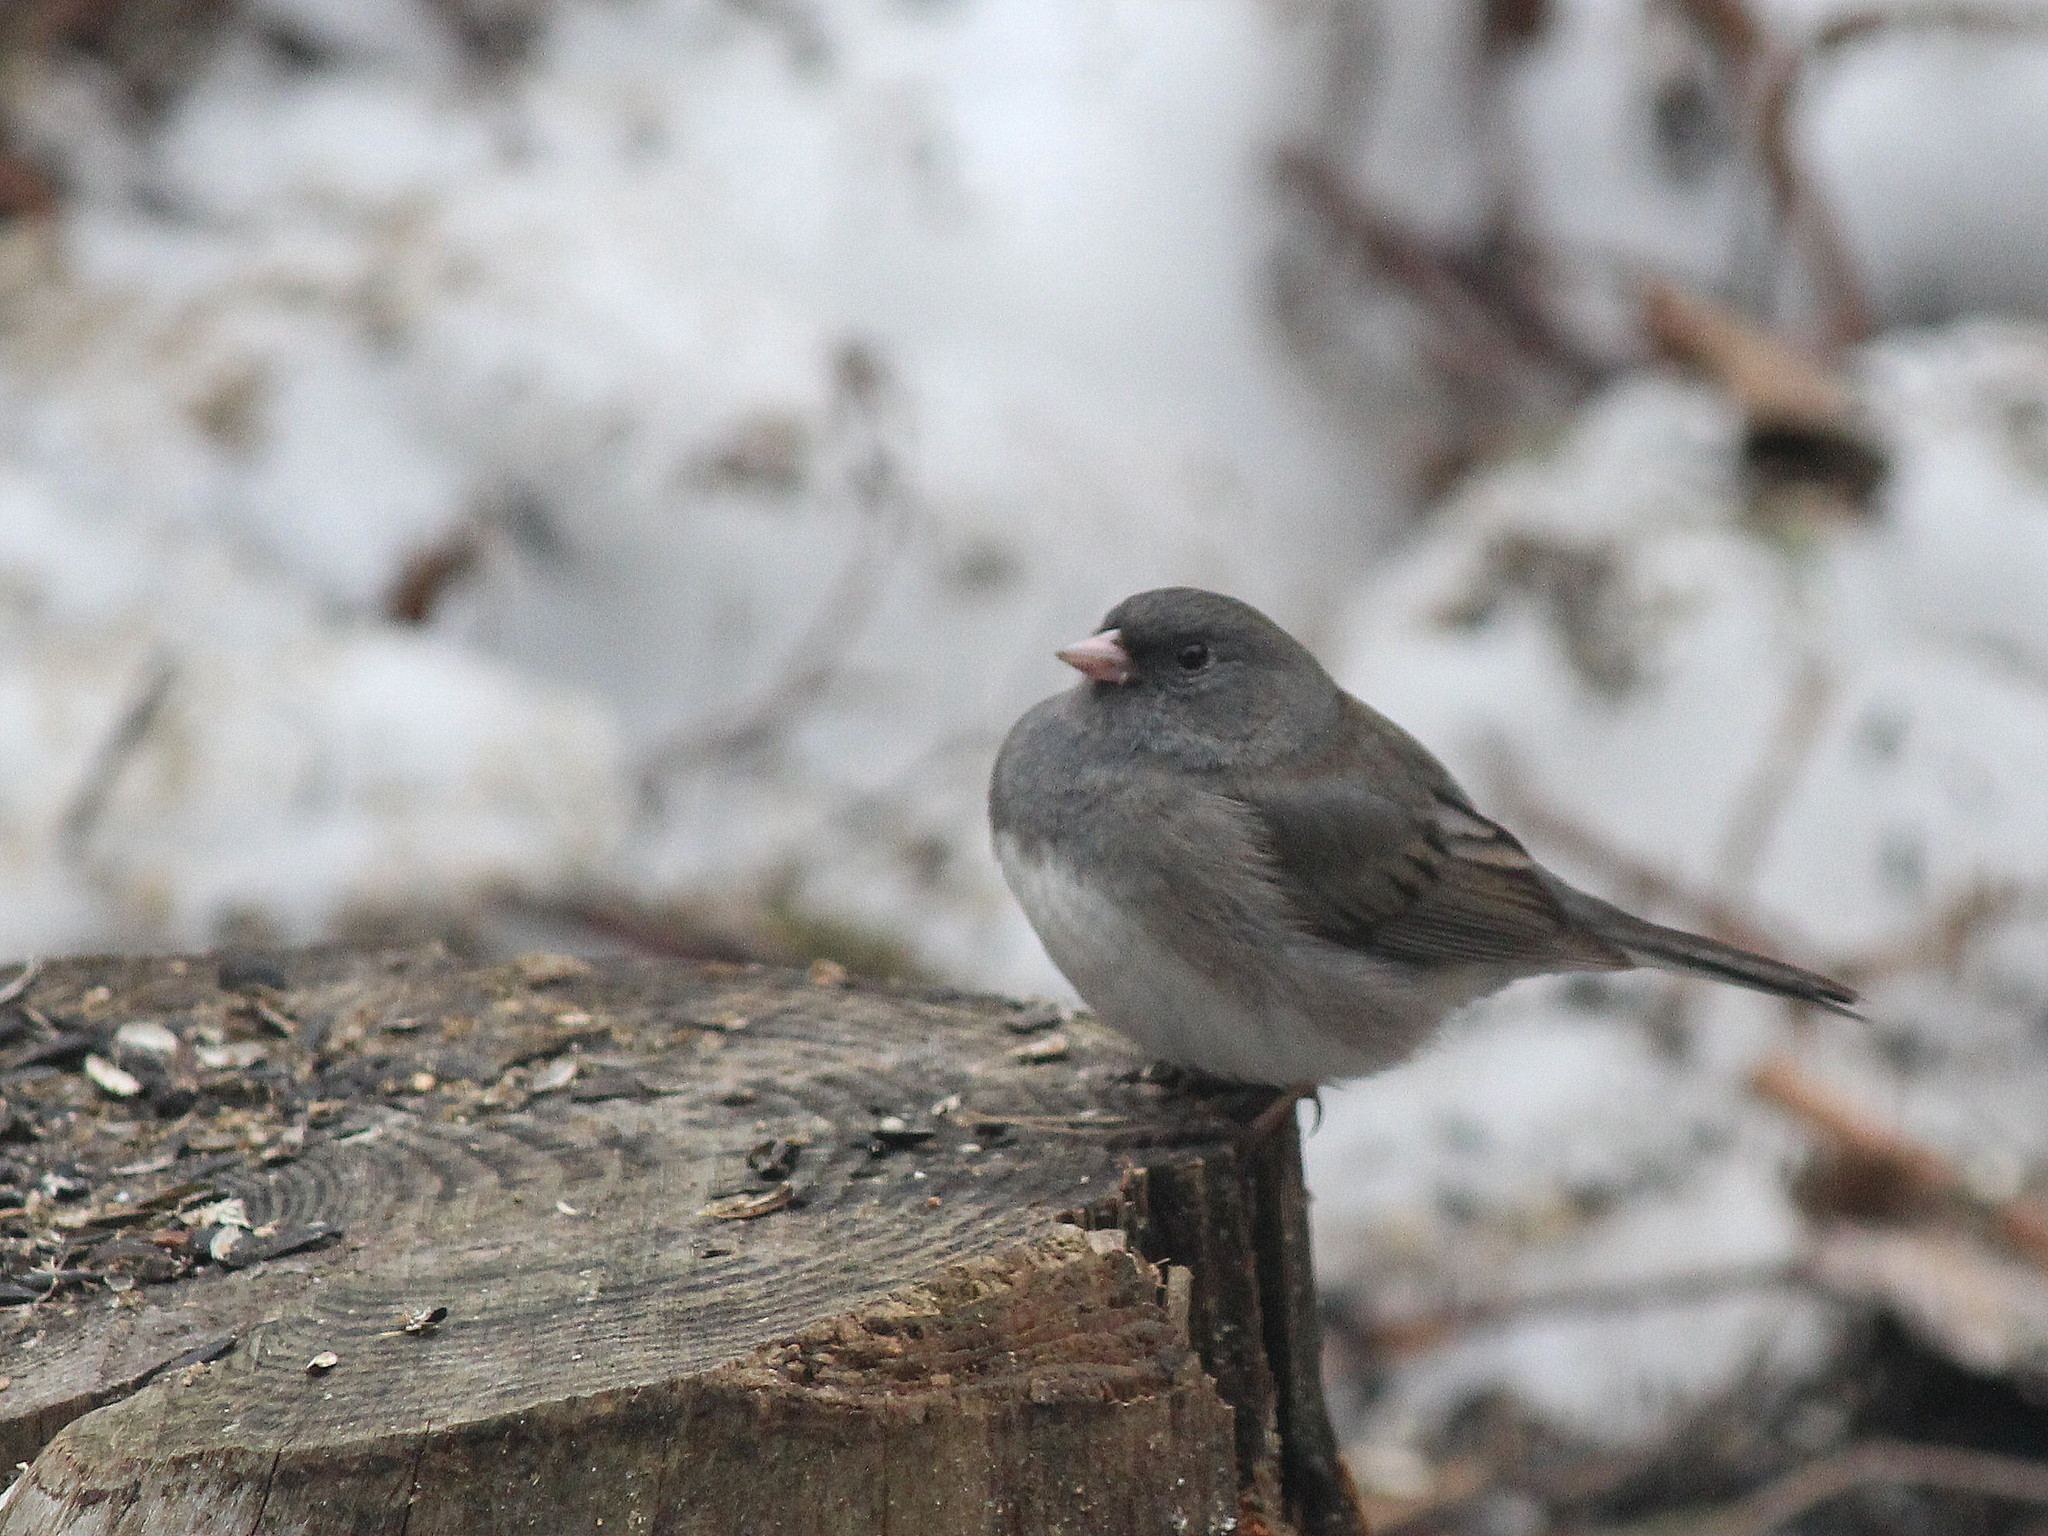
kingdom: Animalia
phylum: Chordata
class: Aves
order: Passeriformes
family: Passerellidae
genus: Junco
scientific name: Junco hyemalis
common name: Dark-eyed junco
